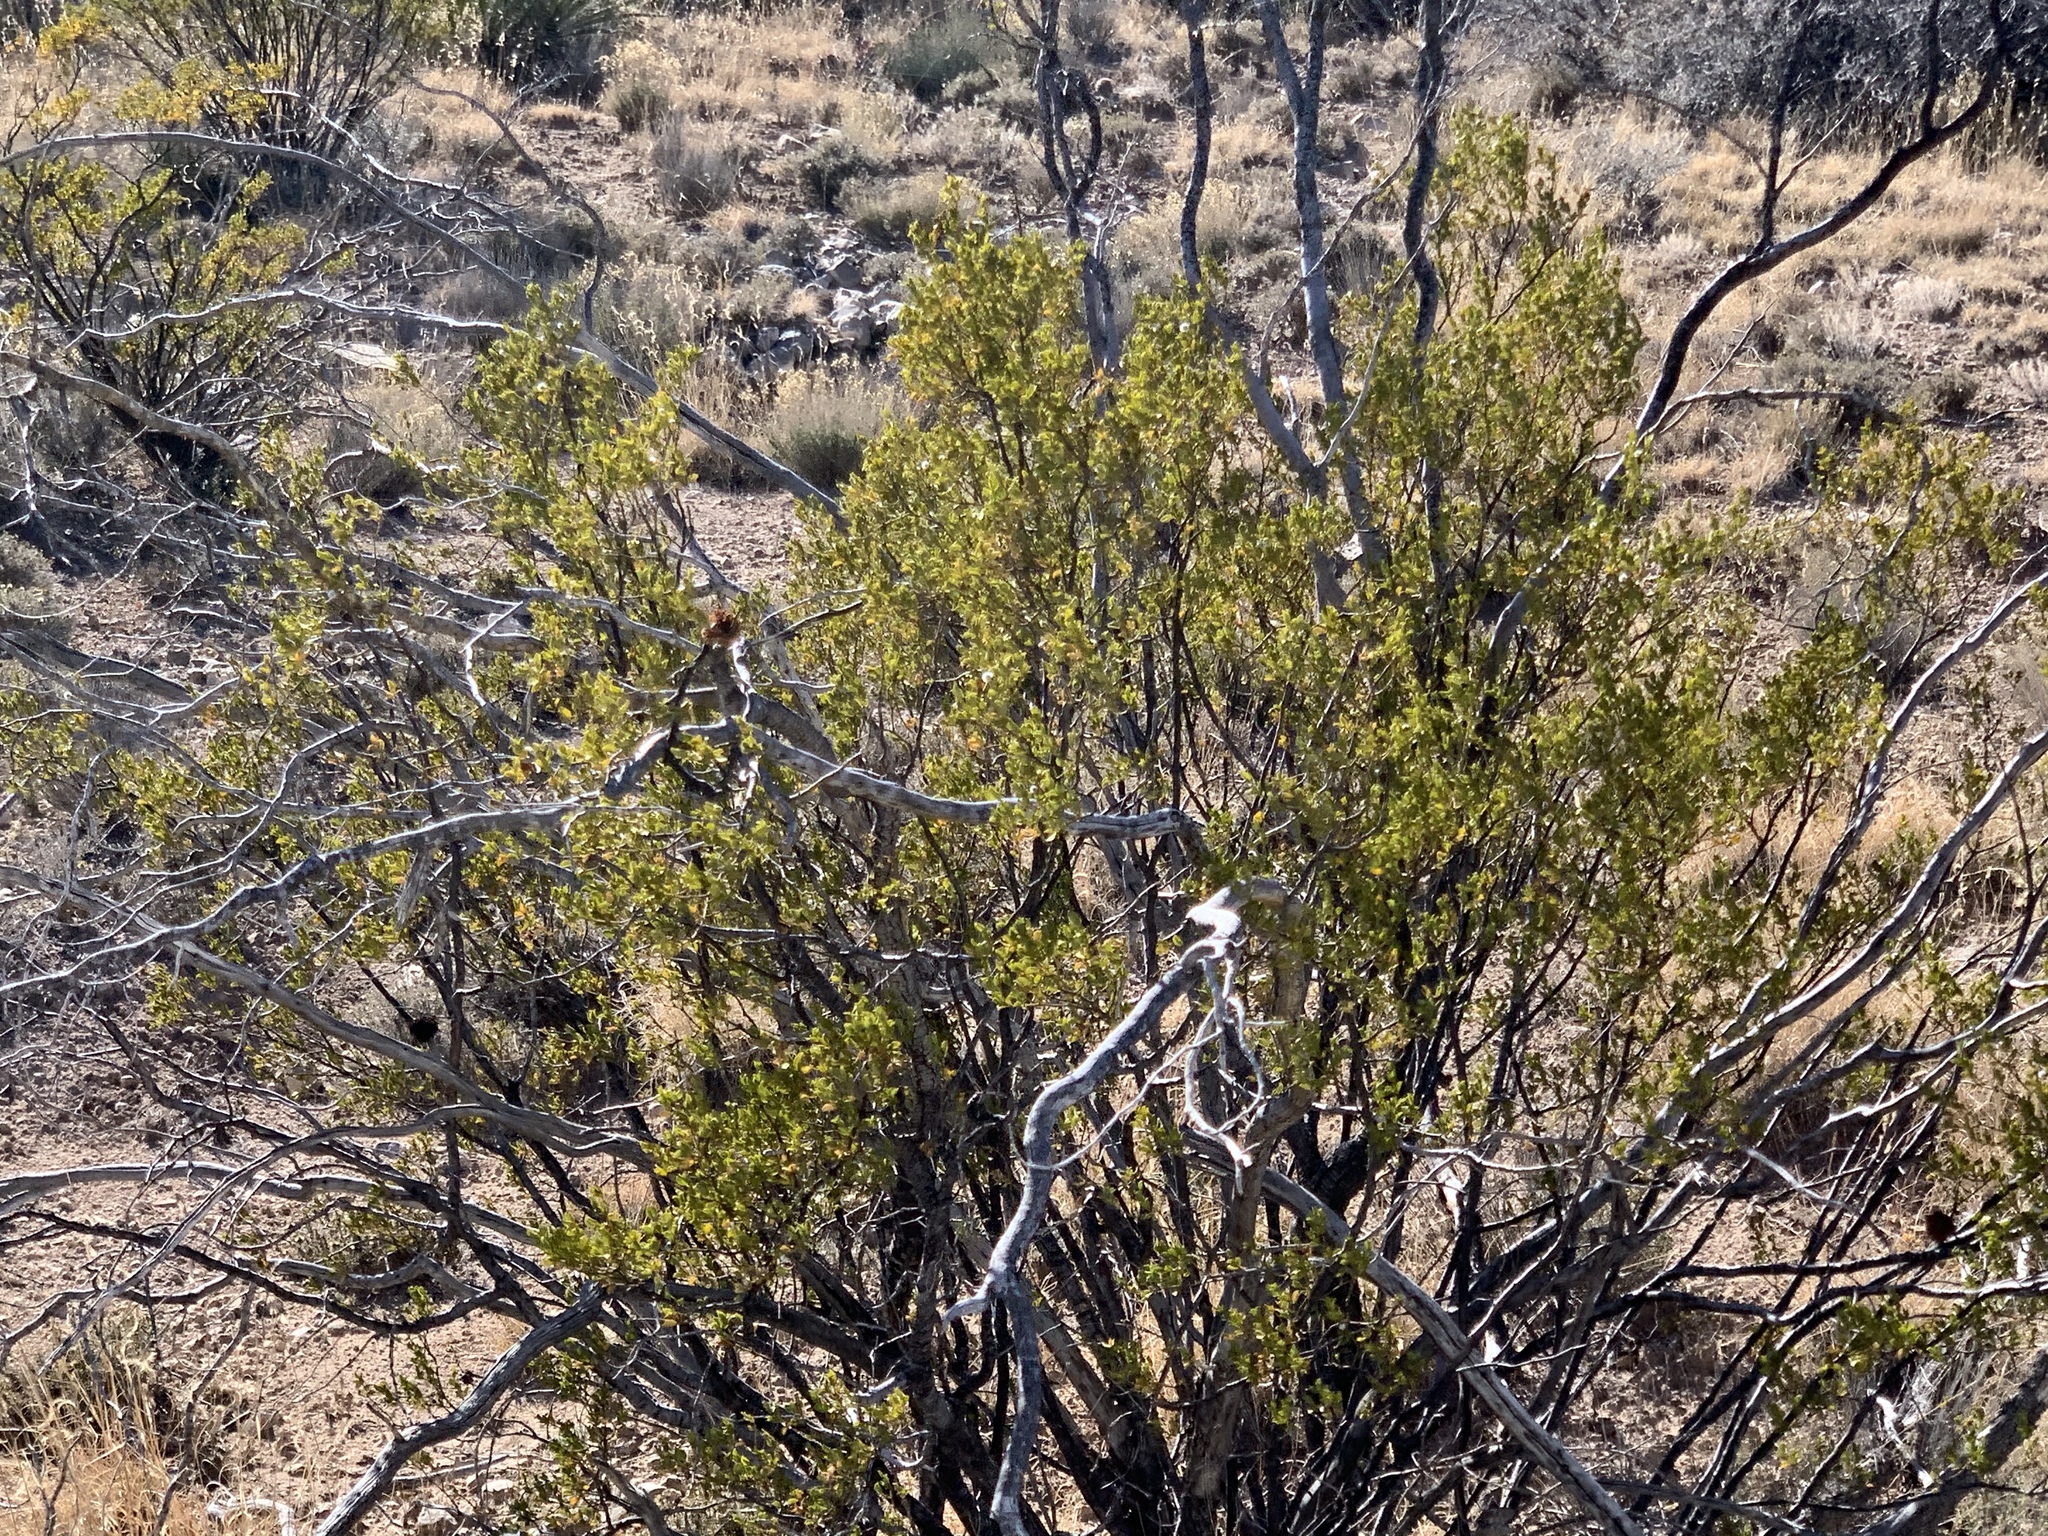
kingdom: Plantae
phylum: Tracheophyta
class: Magnoliopsida
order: Zygophyllales
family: Zygophyllaceae
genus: Larrea
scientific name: Larrea tridentata
